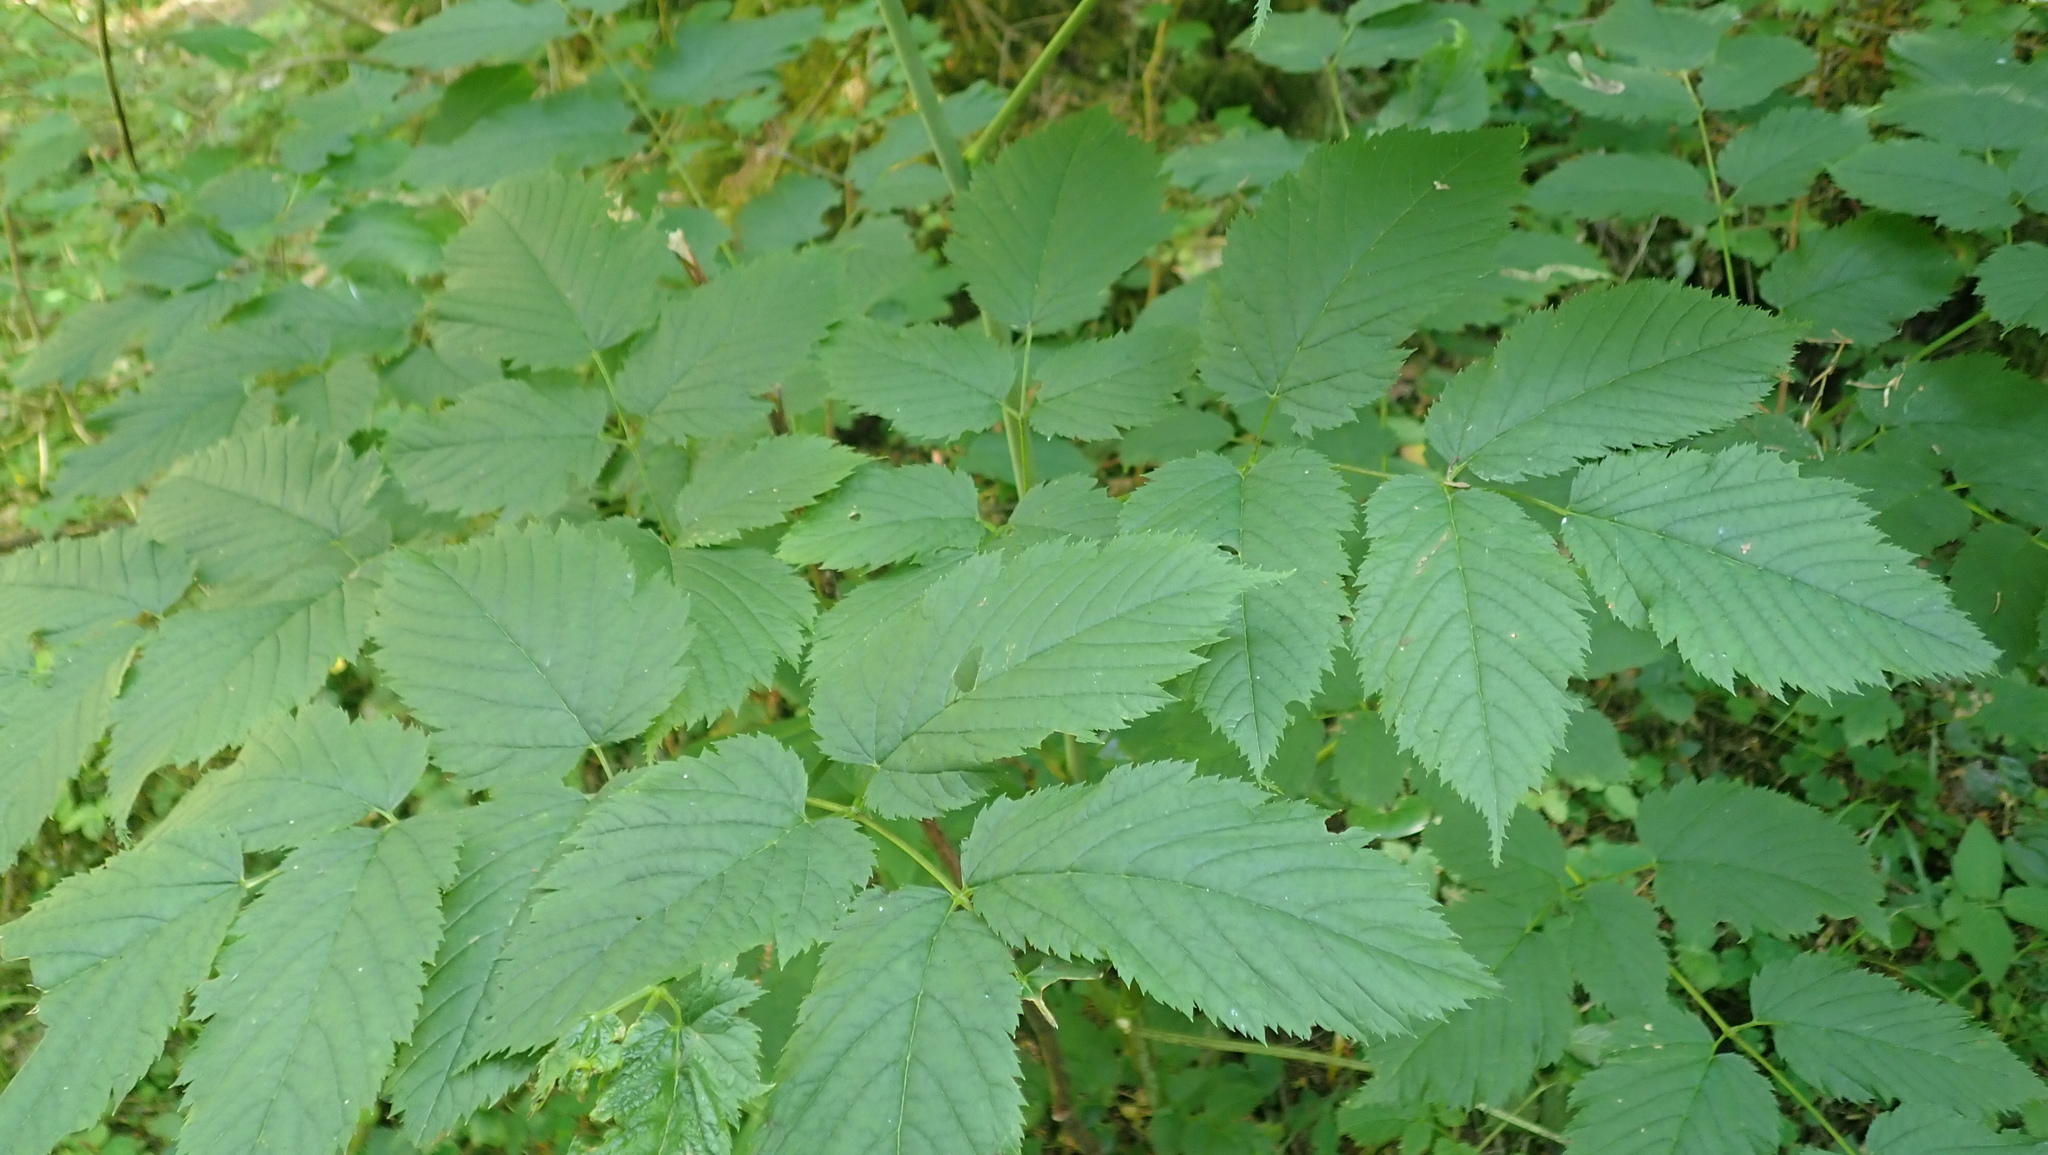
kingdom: Plantae
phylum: Tracheophyta
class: Magnoliopsida
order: Rosales
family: Rosaceae
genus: Aruncus
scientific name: Aruncus dioicus
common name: Buck's-beard
